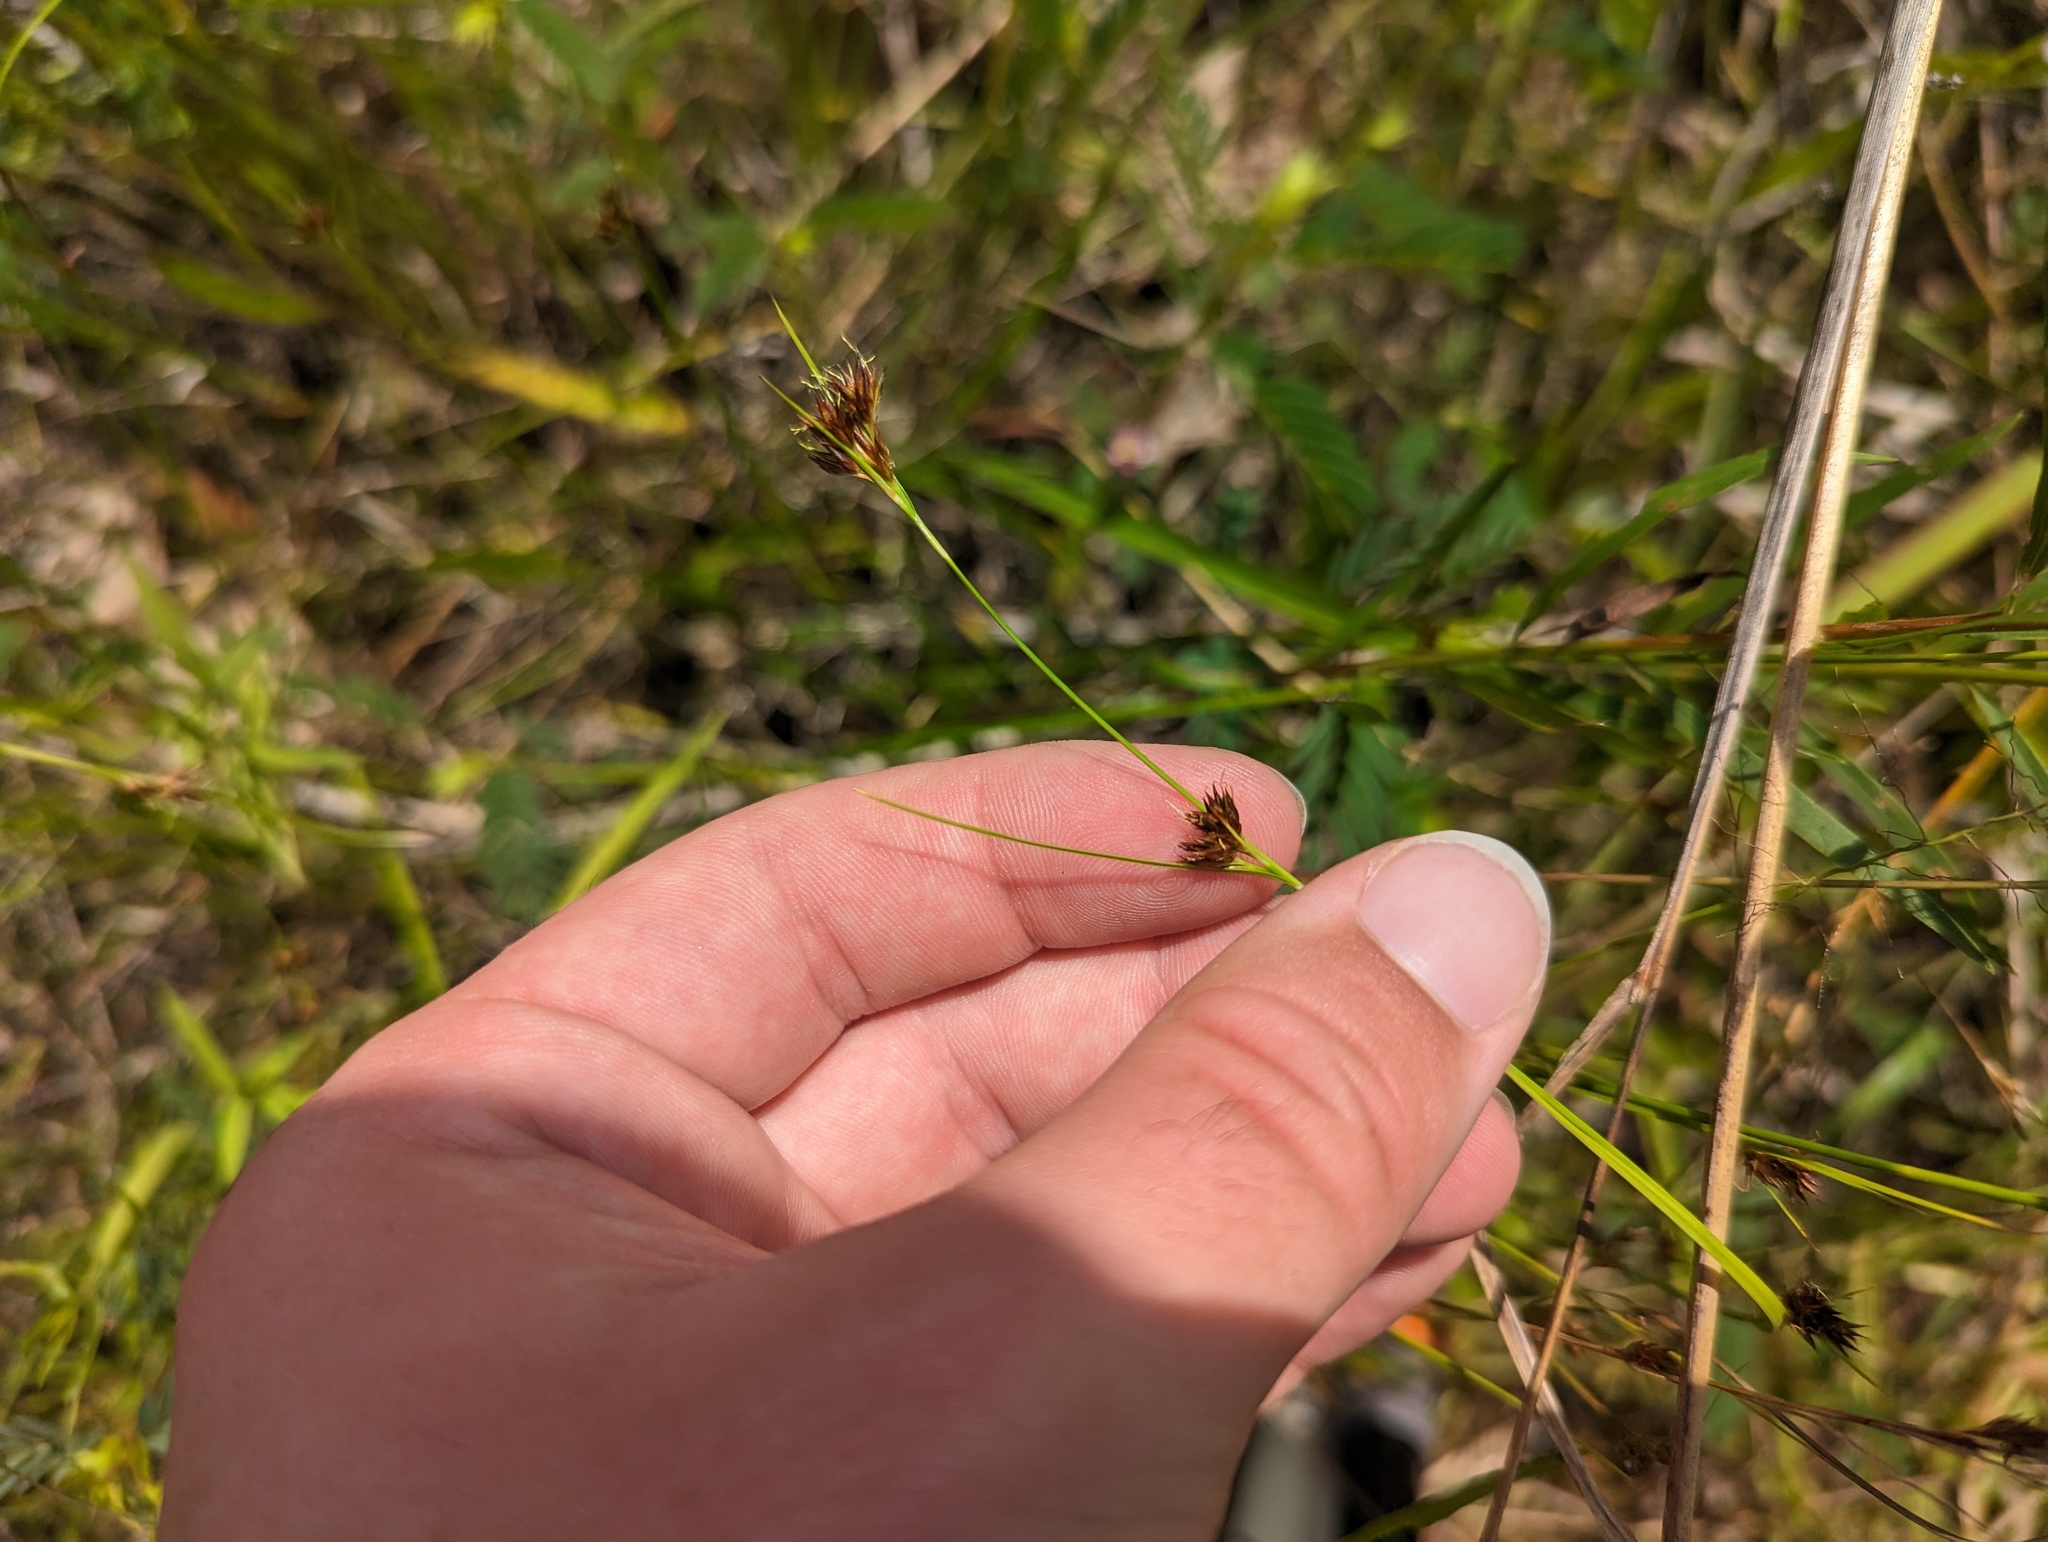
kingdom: Plantae
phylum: Tracheophyta
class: Liliopsida
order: Poales
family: Cyperaceae
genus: Rhynchospora
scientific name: Rhynchospora capitellata
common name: Brownish beaksedge
